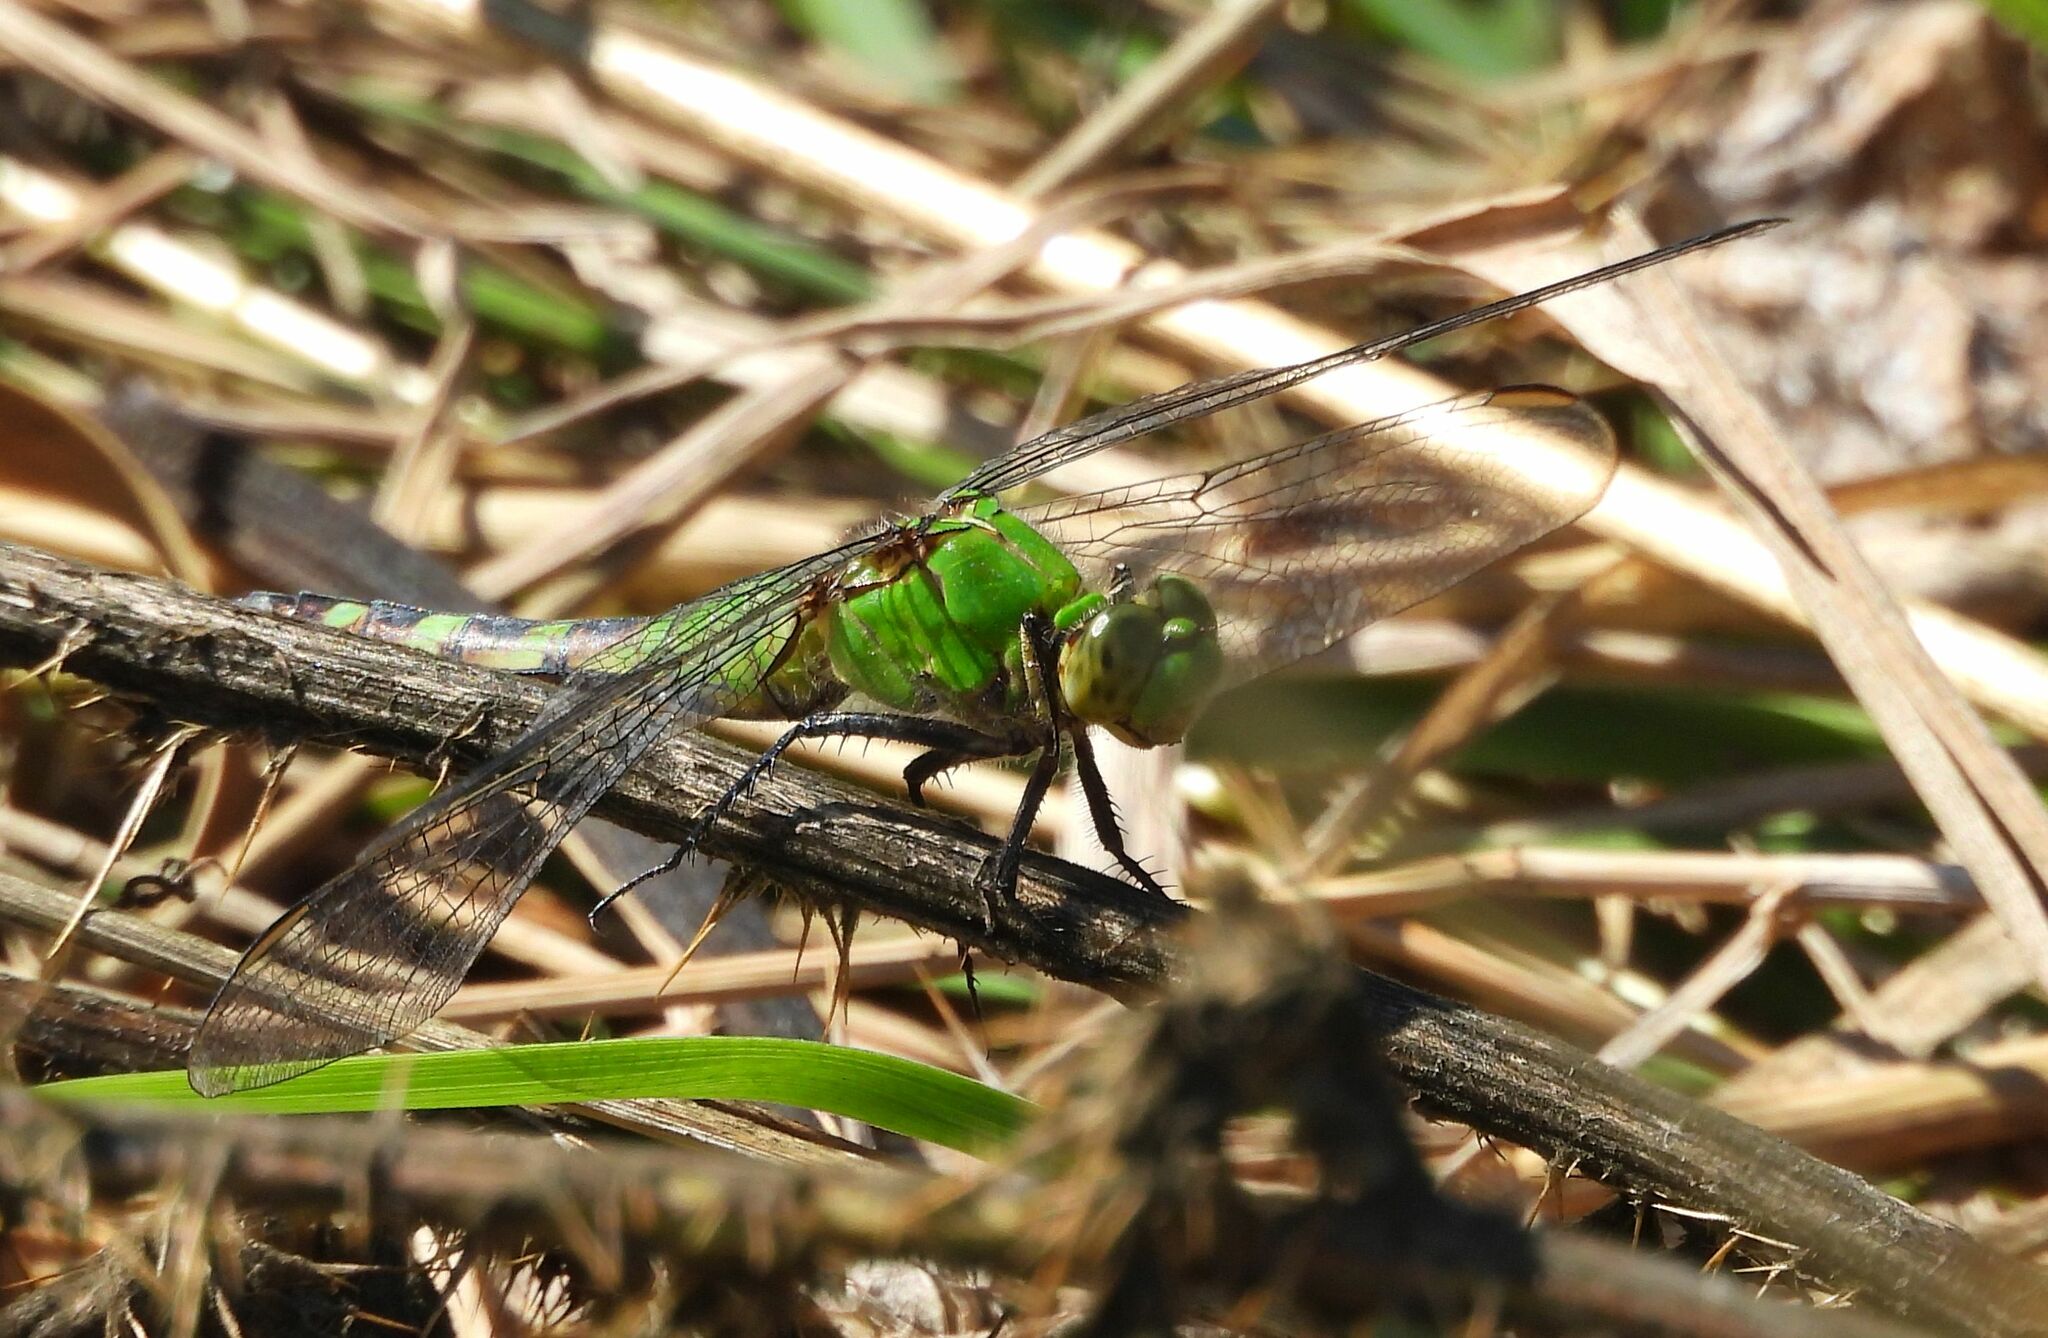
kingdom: Animalia
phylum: Arthropoda
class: Insecta
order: Odonata
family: Libellulidae
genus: Erythemis
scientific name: Erythemis simplicicollis
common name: Eastern pondhawk
